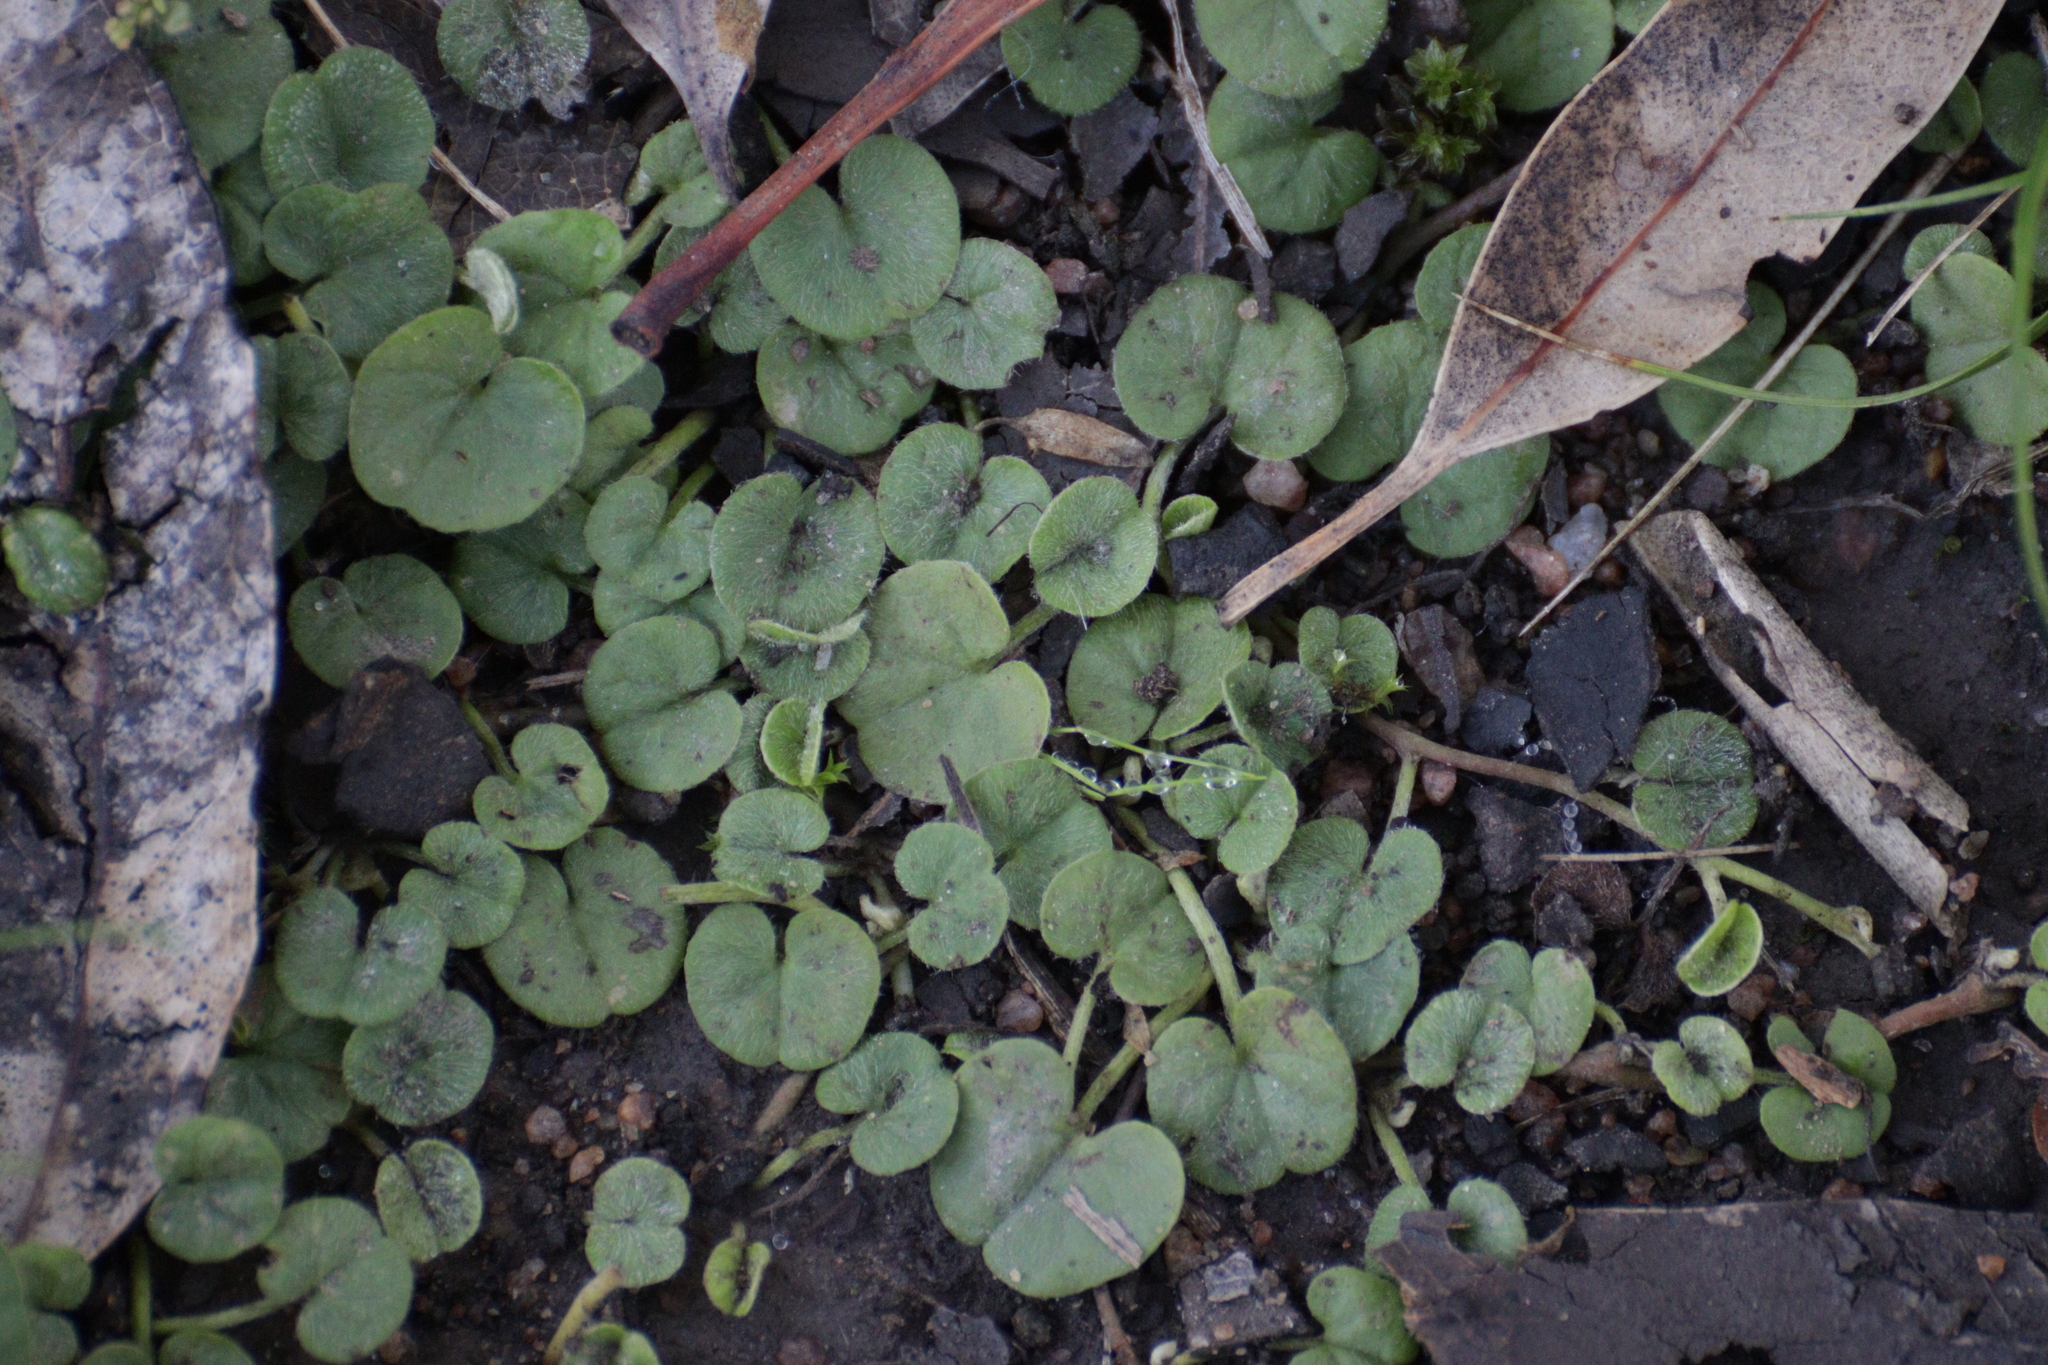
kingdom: Plantae
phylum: Tracheophyta
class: Magnoliopsida
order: Solanales
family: Convolvulaceae
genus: Dichondra
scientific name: Dichondra repens
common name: Kidneyweed
